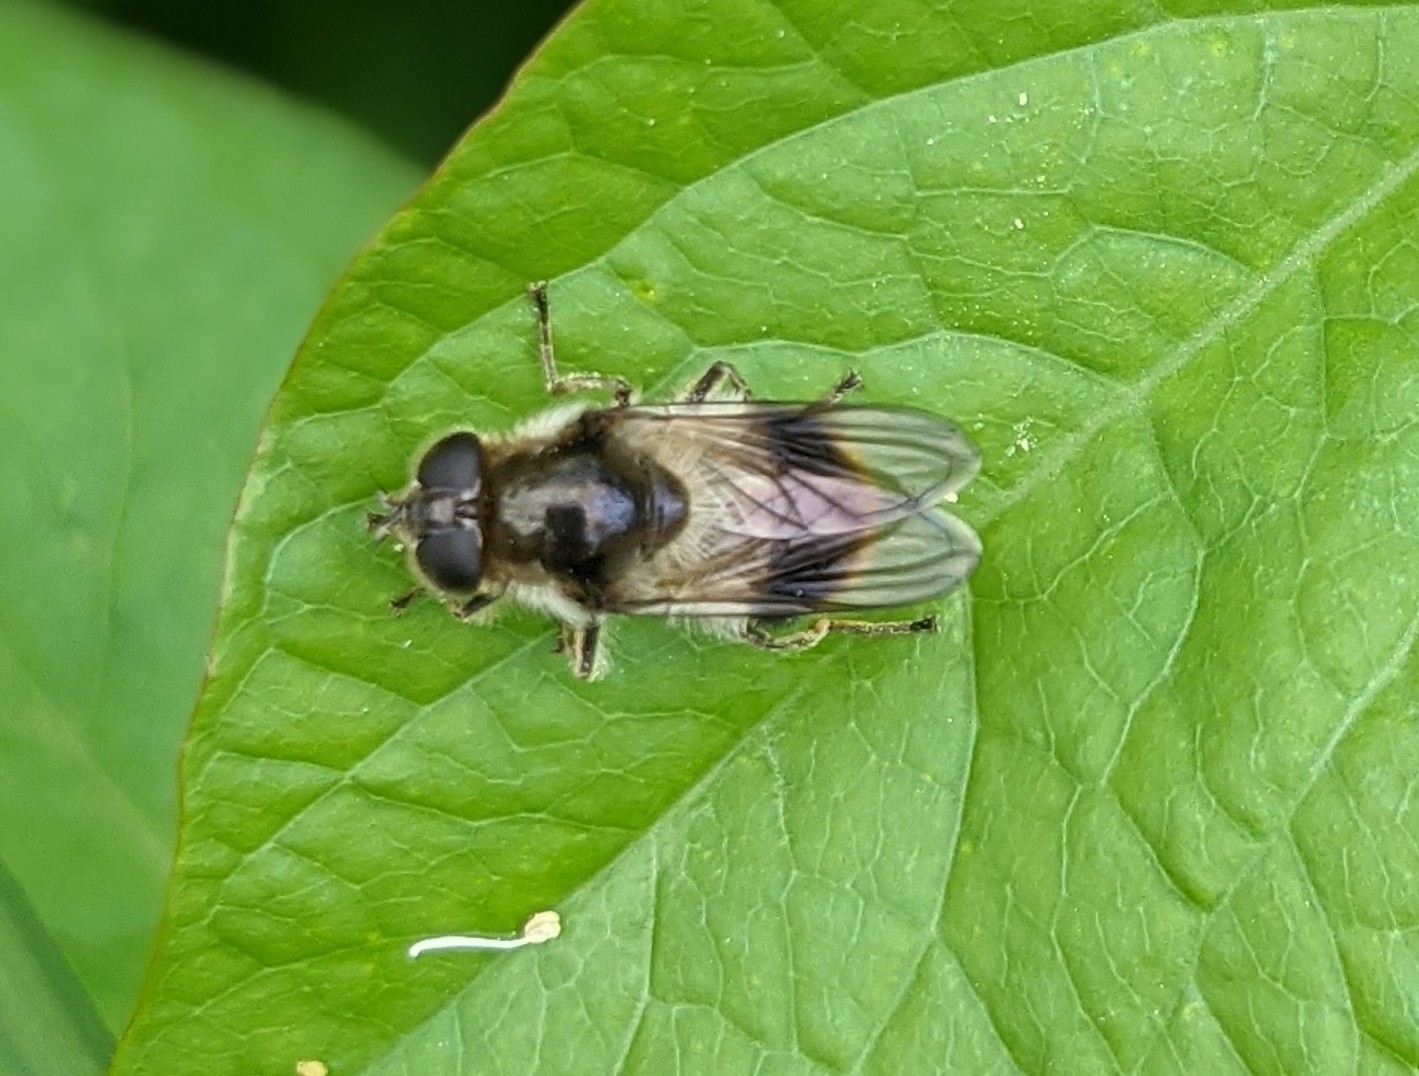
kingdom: Animalia
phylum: Arthropoda
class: Insecta
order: Diptera
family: Syrphidae
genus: Cheilosia
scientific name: Cheilosia illustrata
